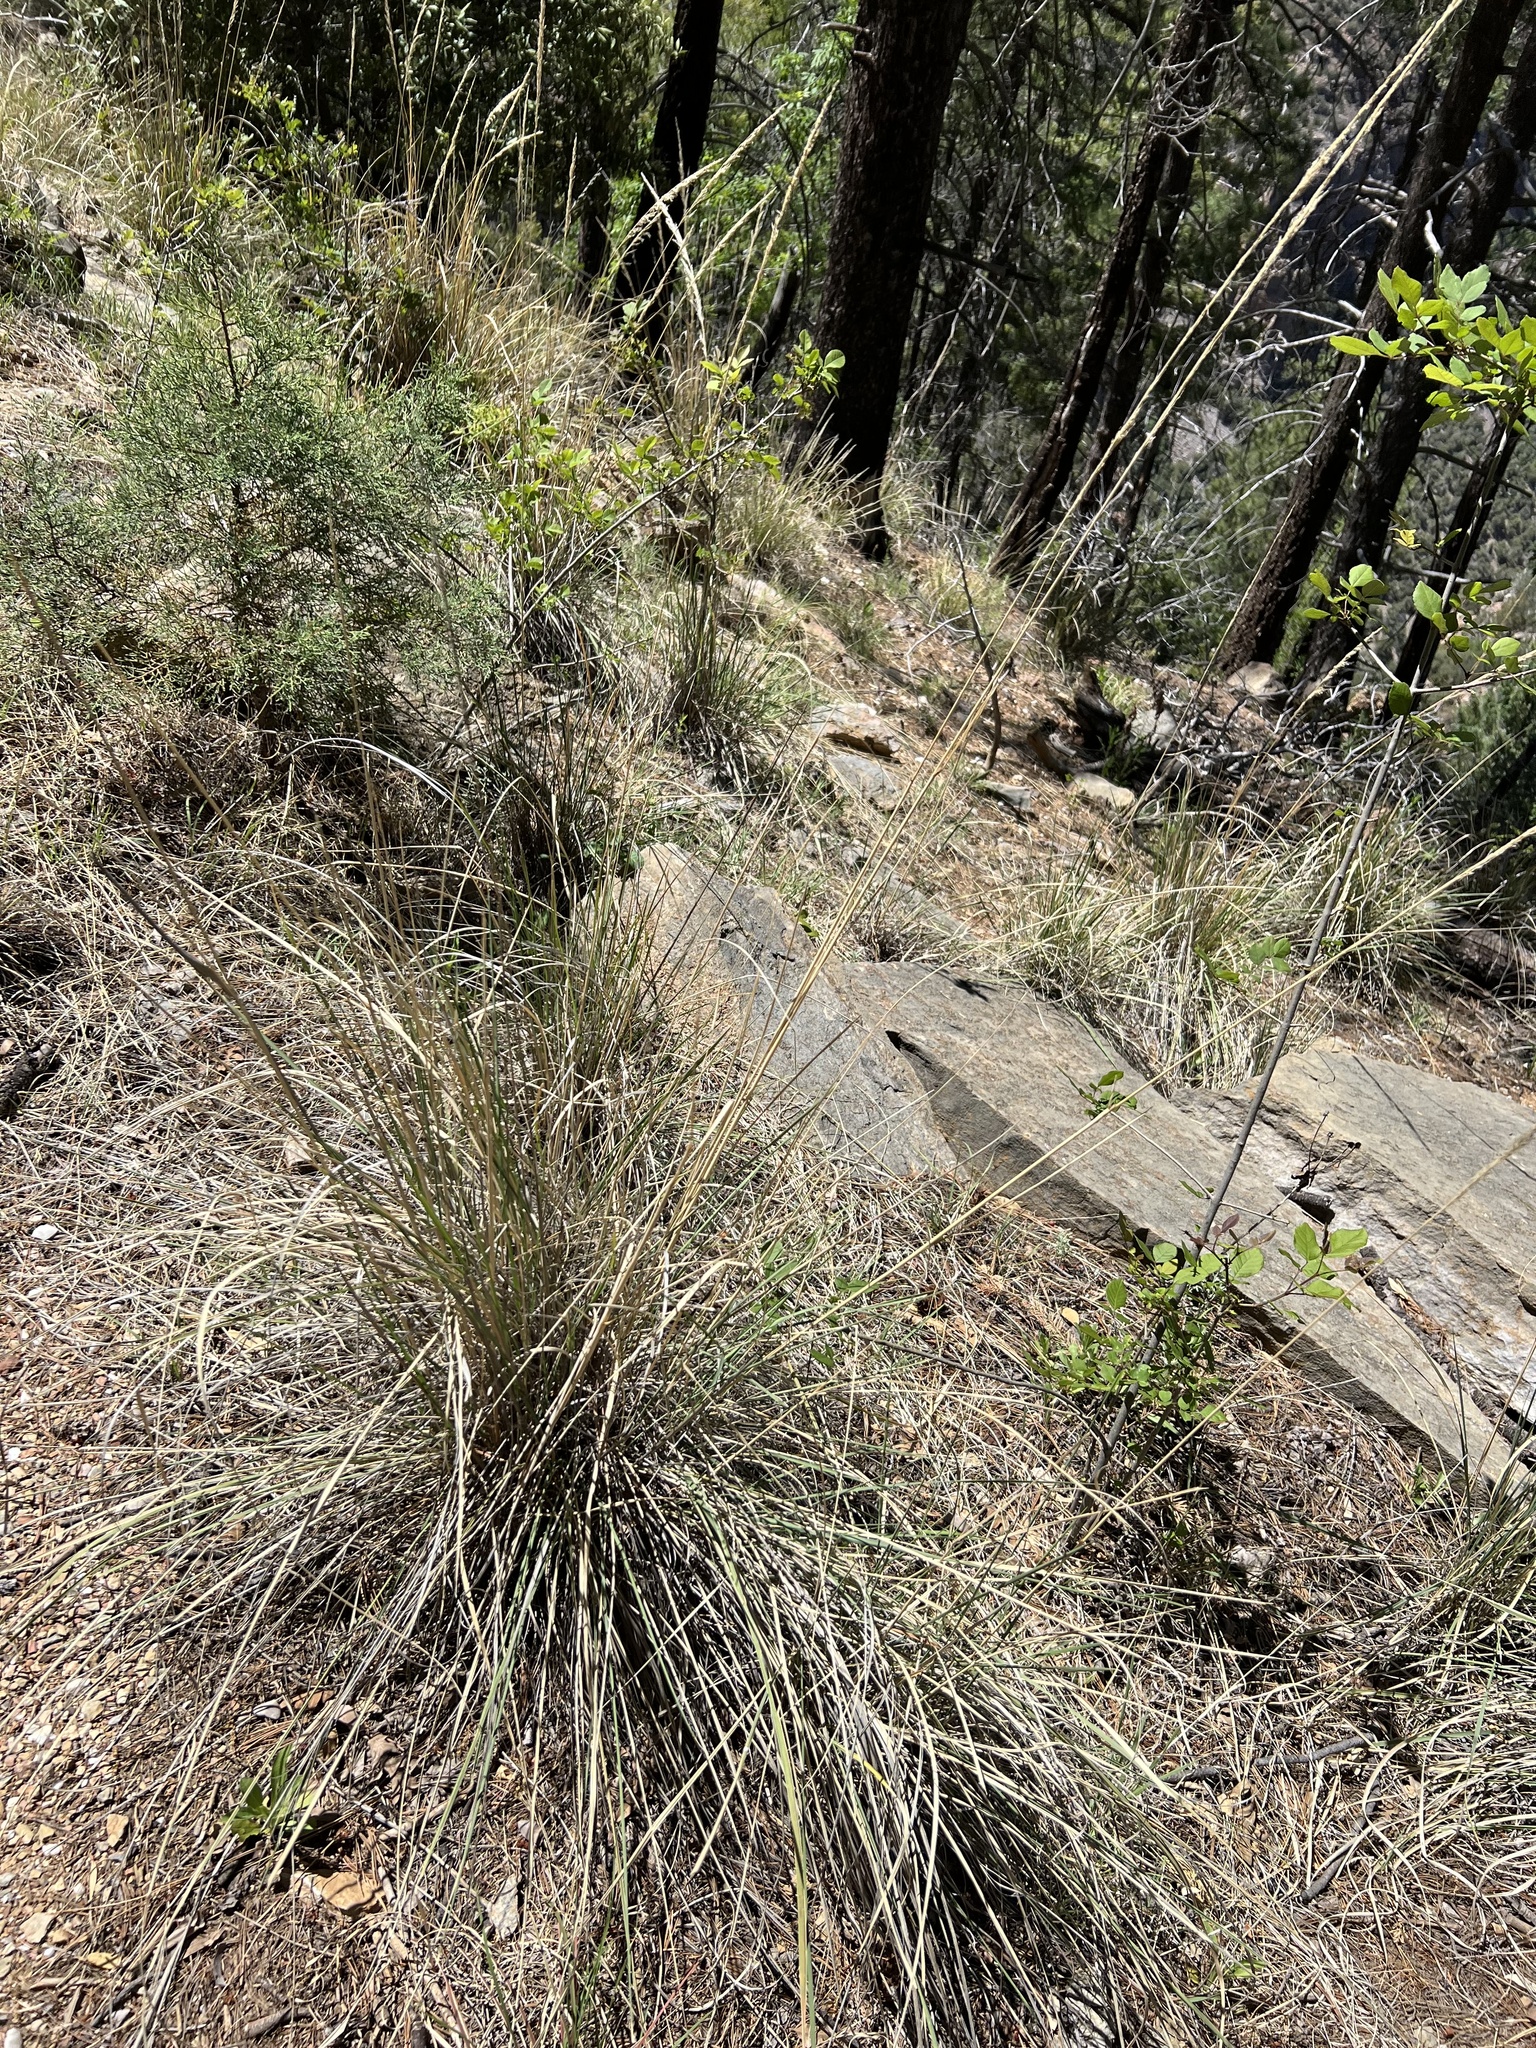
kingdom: Plantae
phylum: Tracheophyta
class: Liliopsida
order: Asparagales
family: Asparagaceae
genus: Nolina
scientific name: Nolina microcarpa
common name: Bear-grass
